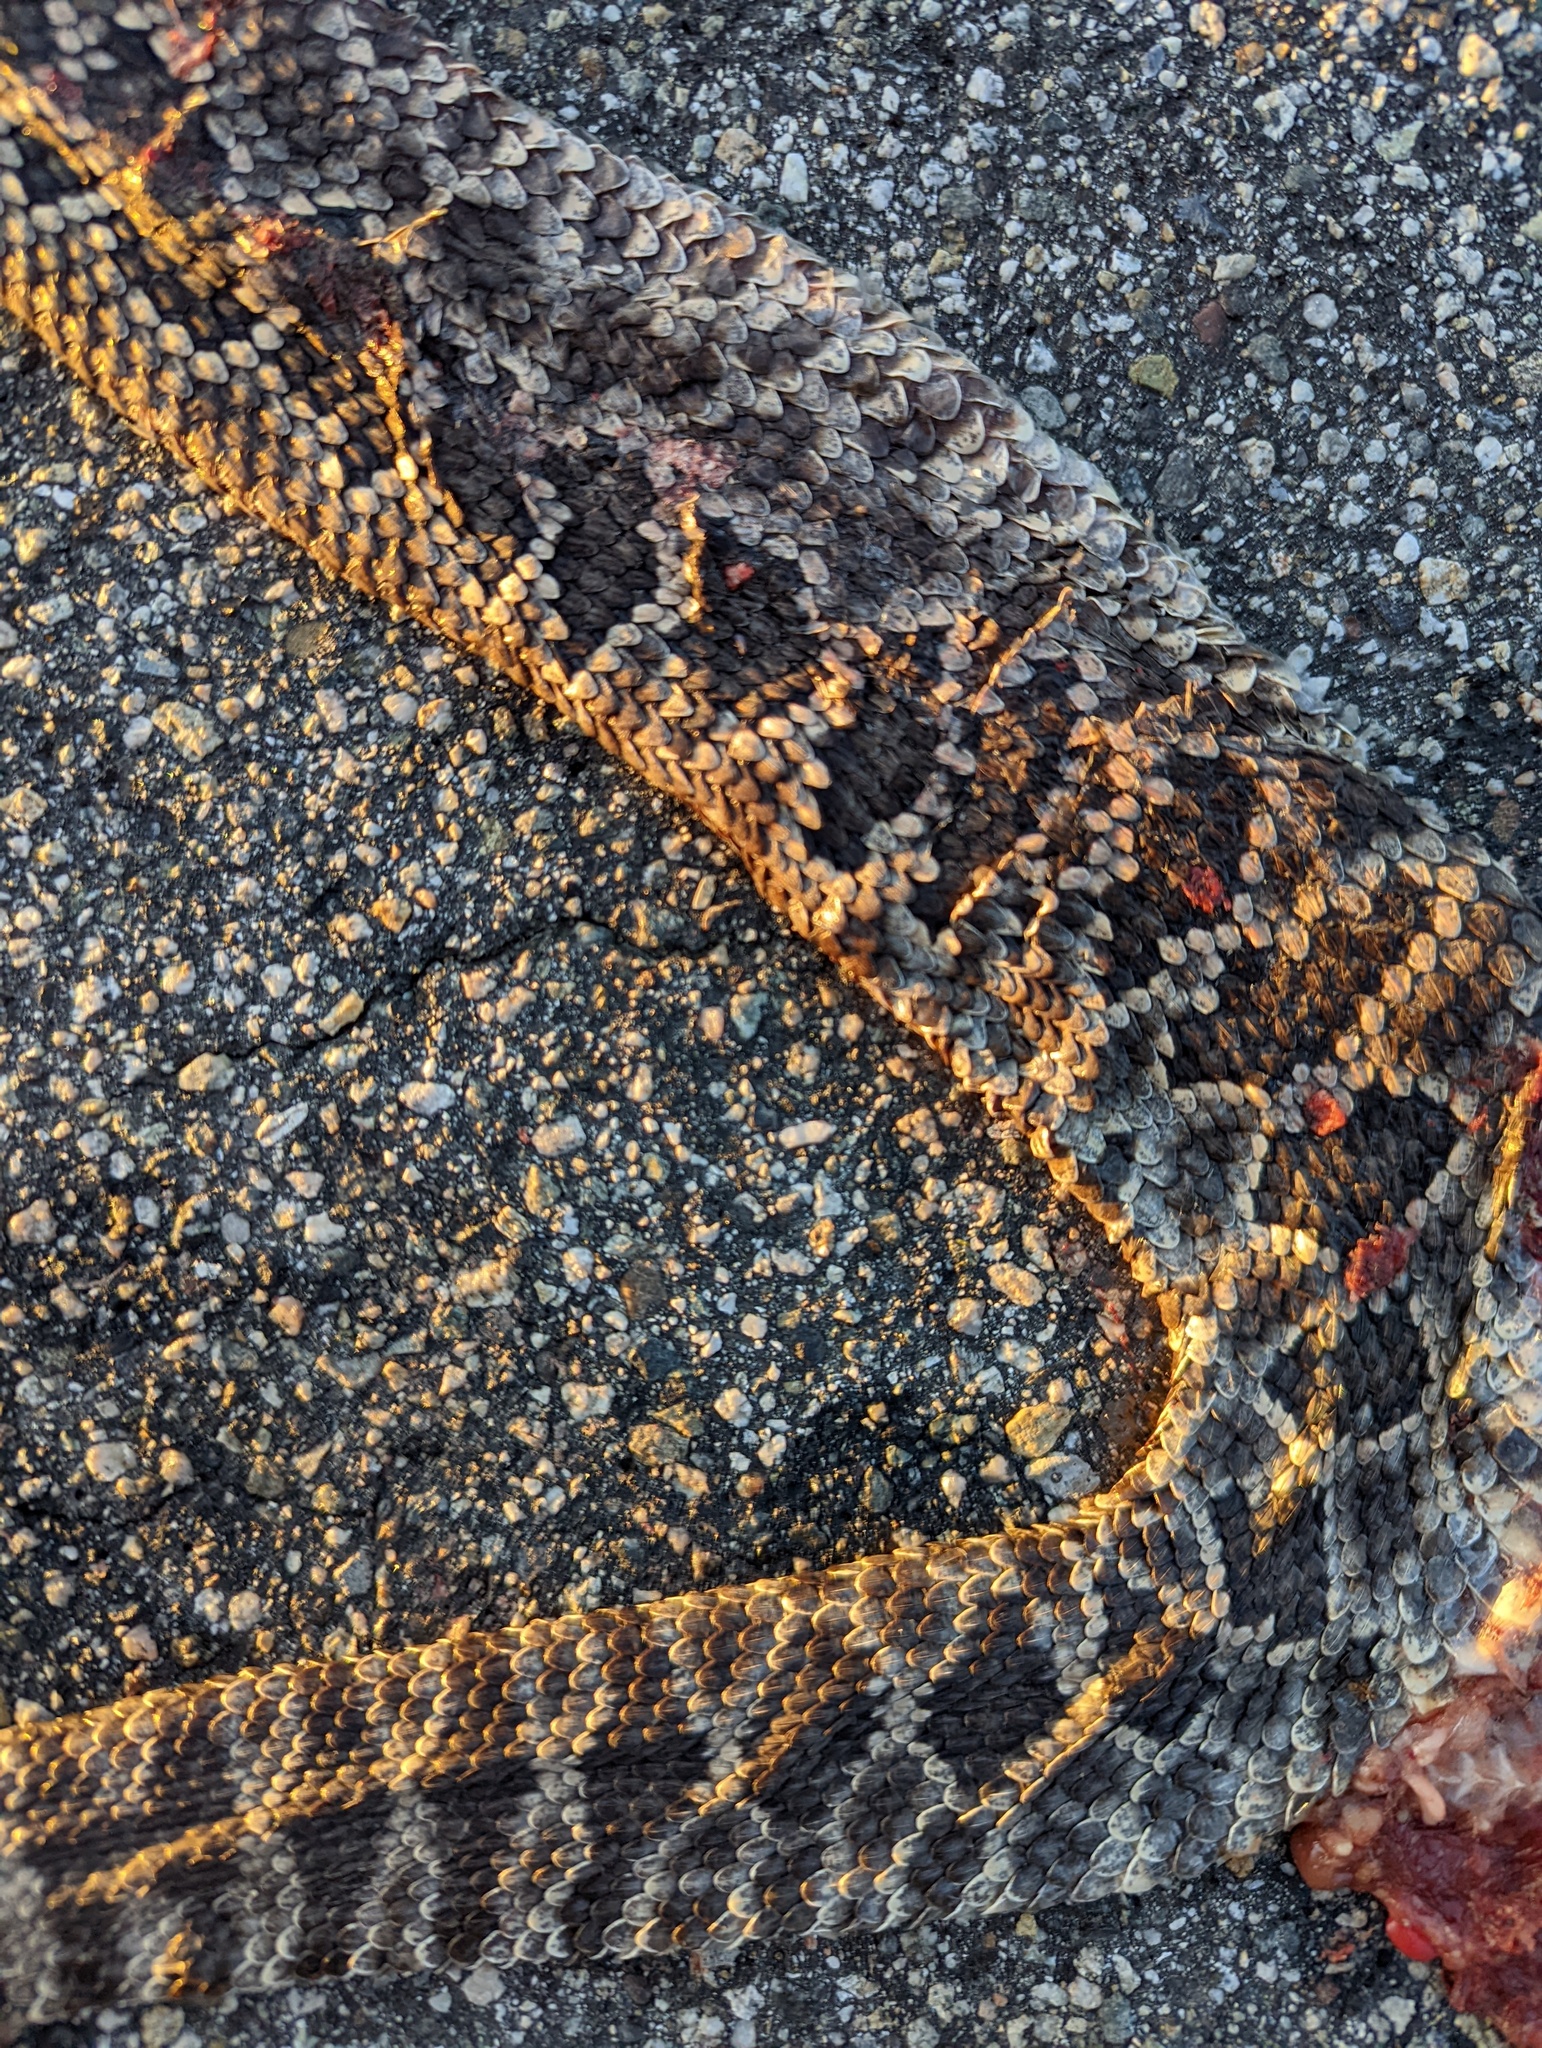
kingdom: Animalia
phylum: Chordata
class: Squamata
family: Viperidae
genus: Crotalus
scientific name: Crotalus oreganus
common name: Abyssus
